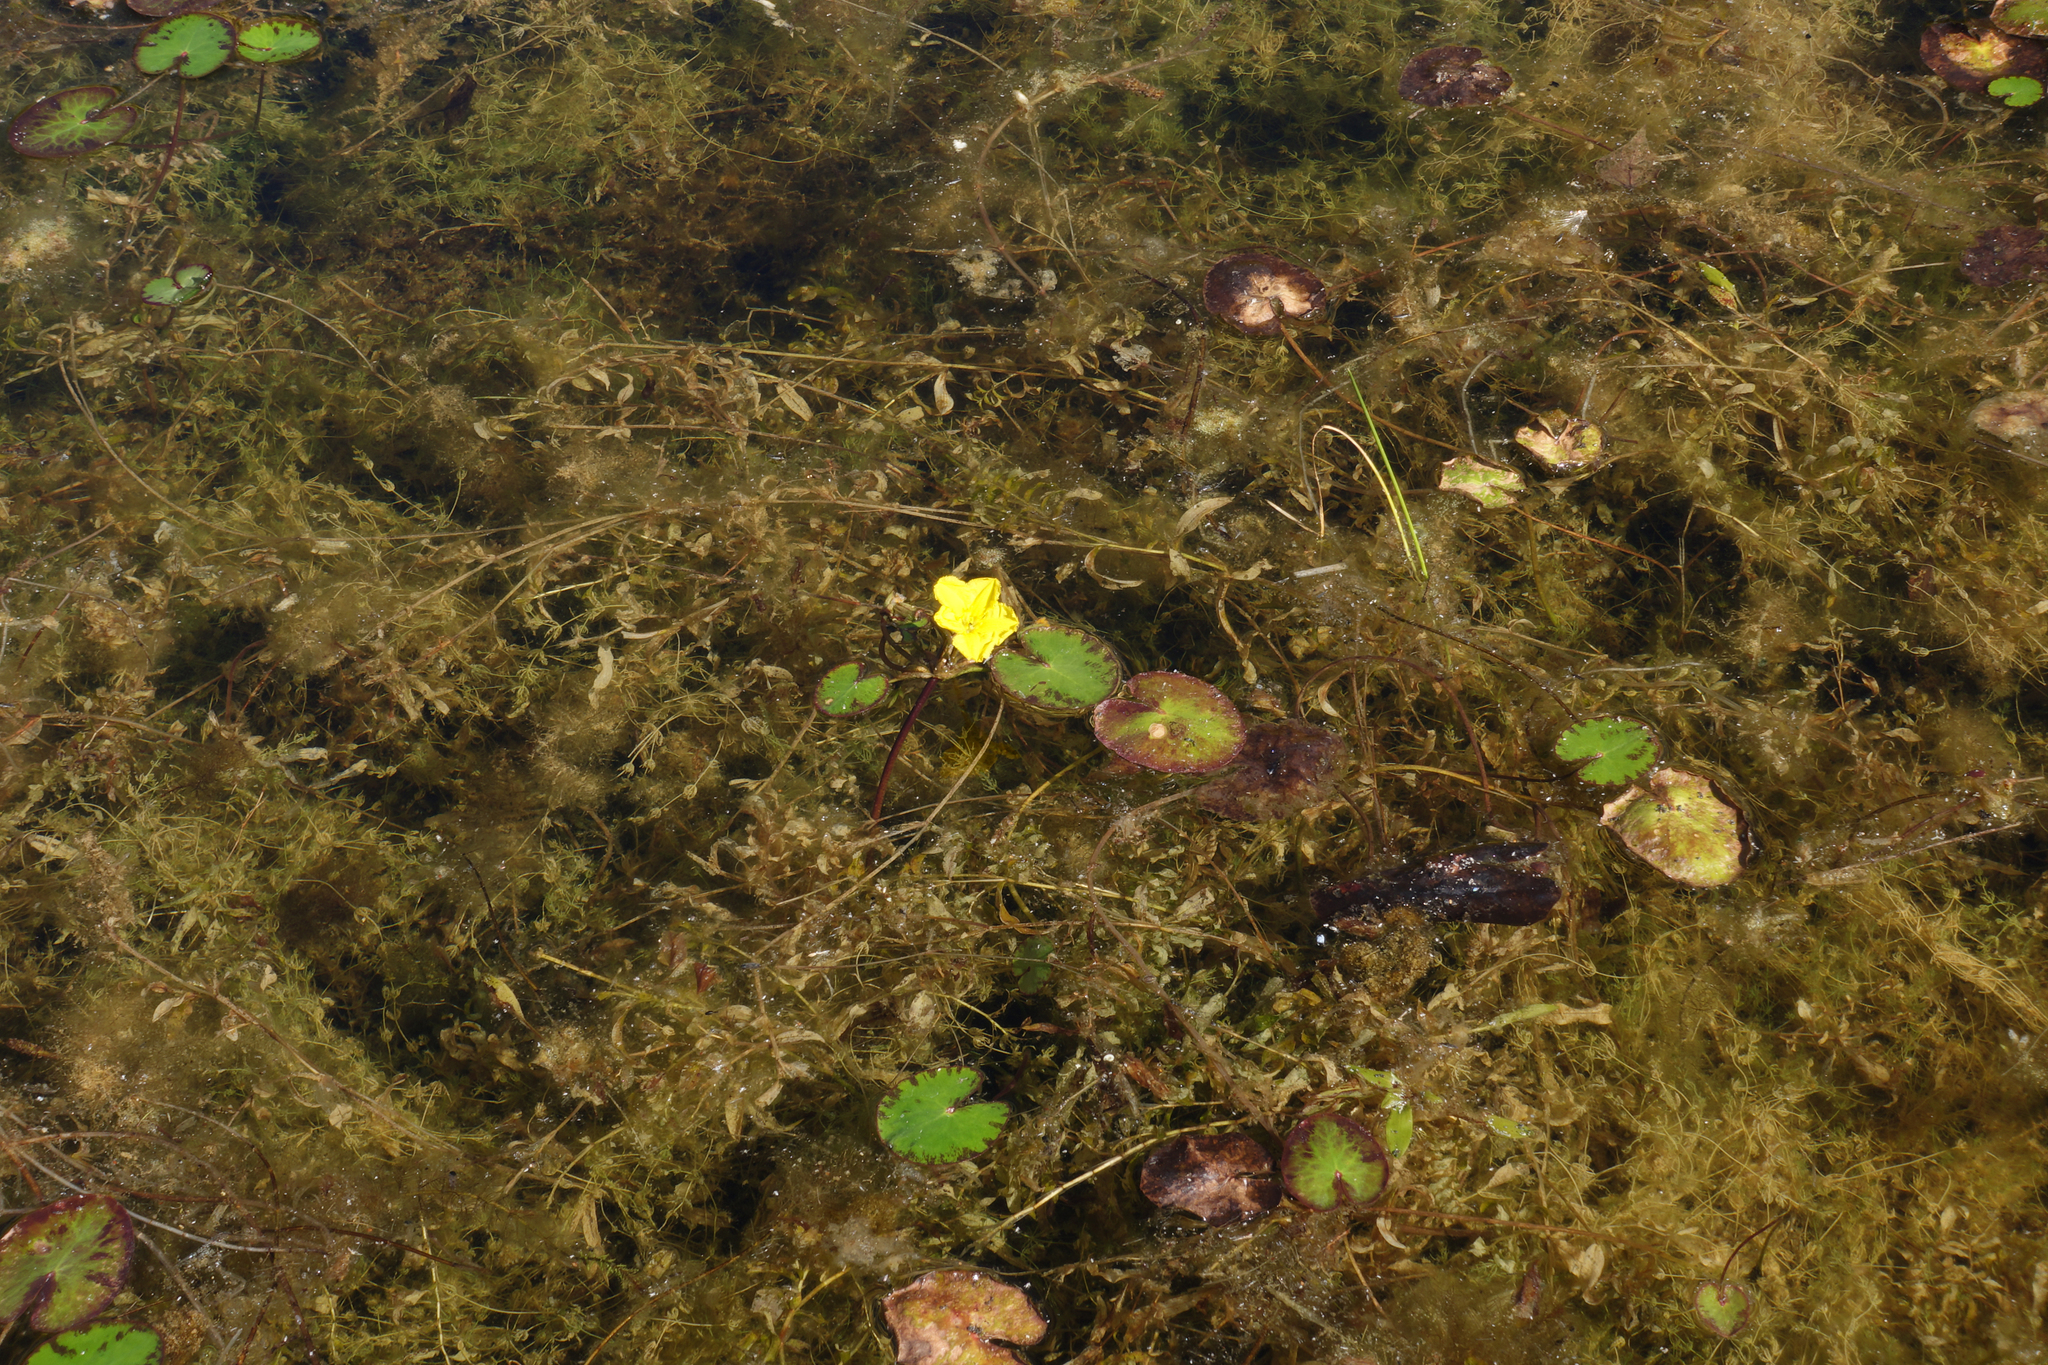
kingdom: Plantae
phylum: Tracheophyta
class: Magnoliopsida
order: Asterales
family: Menyanthaceae
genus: Nymphoides
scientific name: Nymphoides peltata
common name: Fringed water-lily
